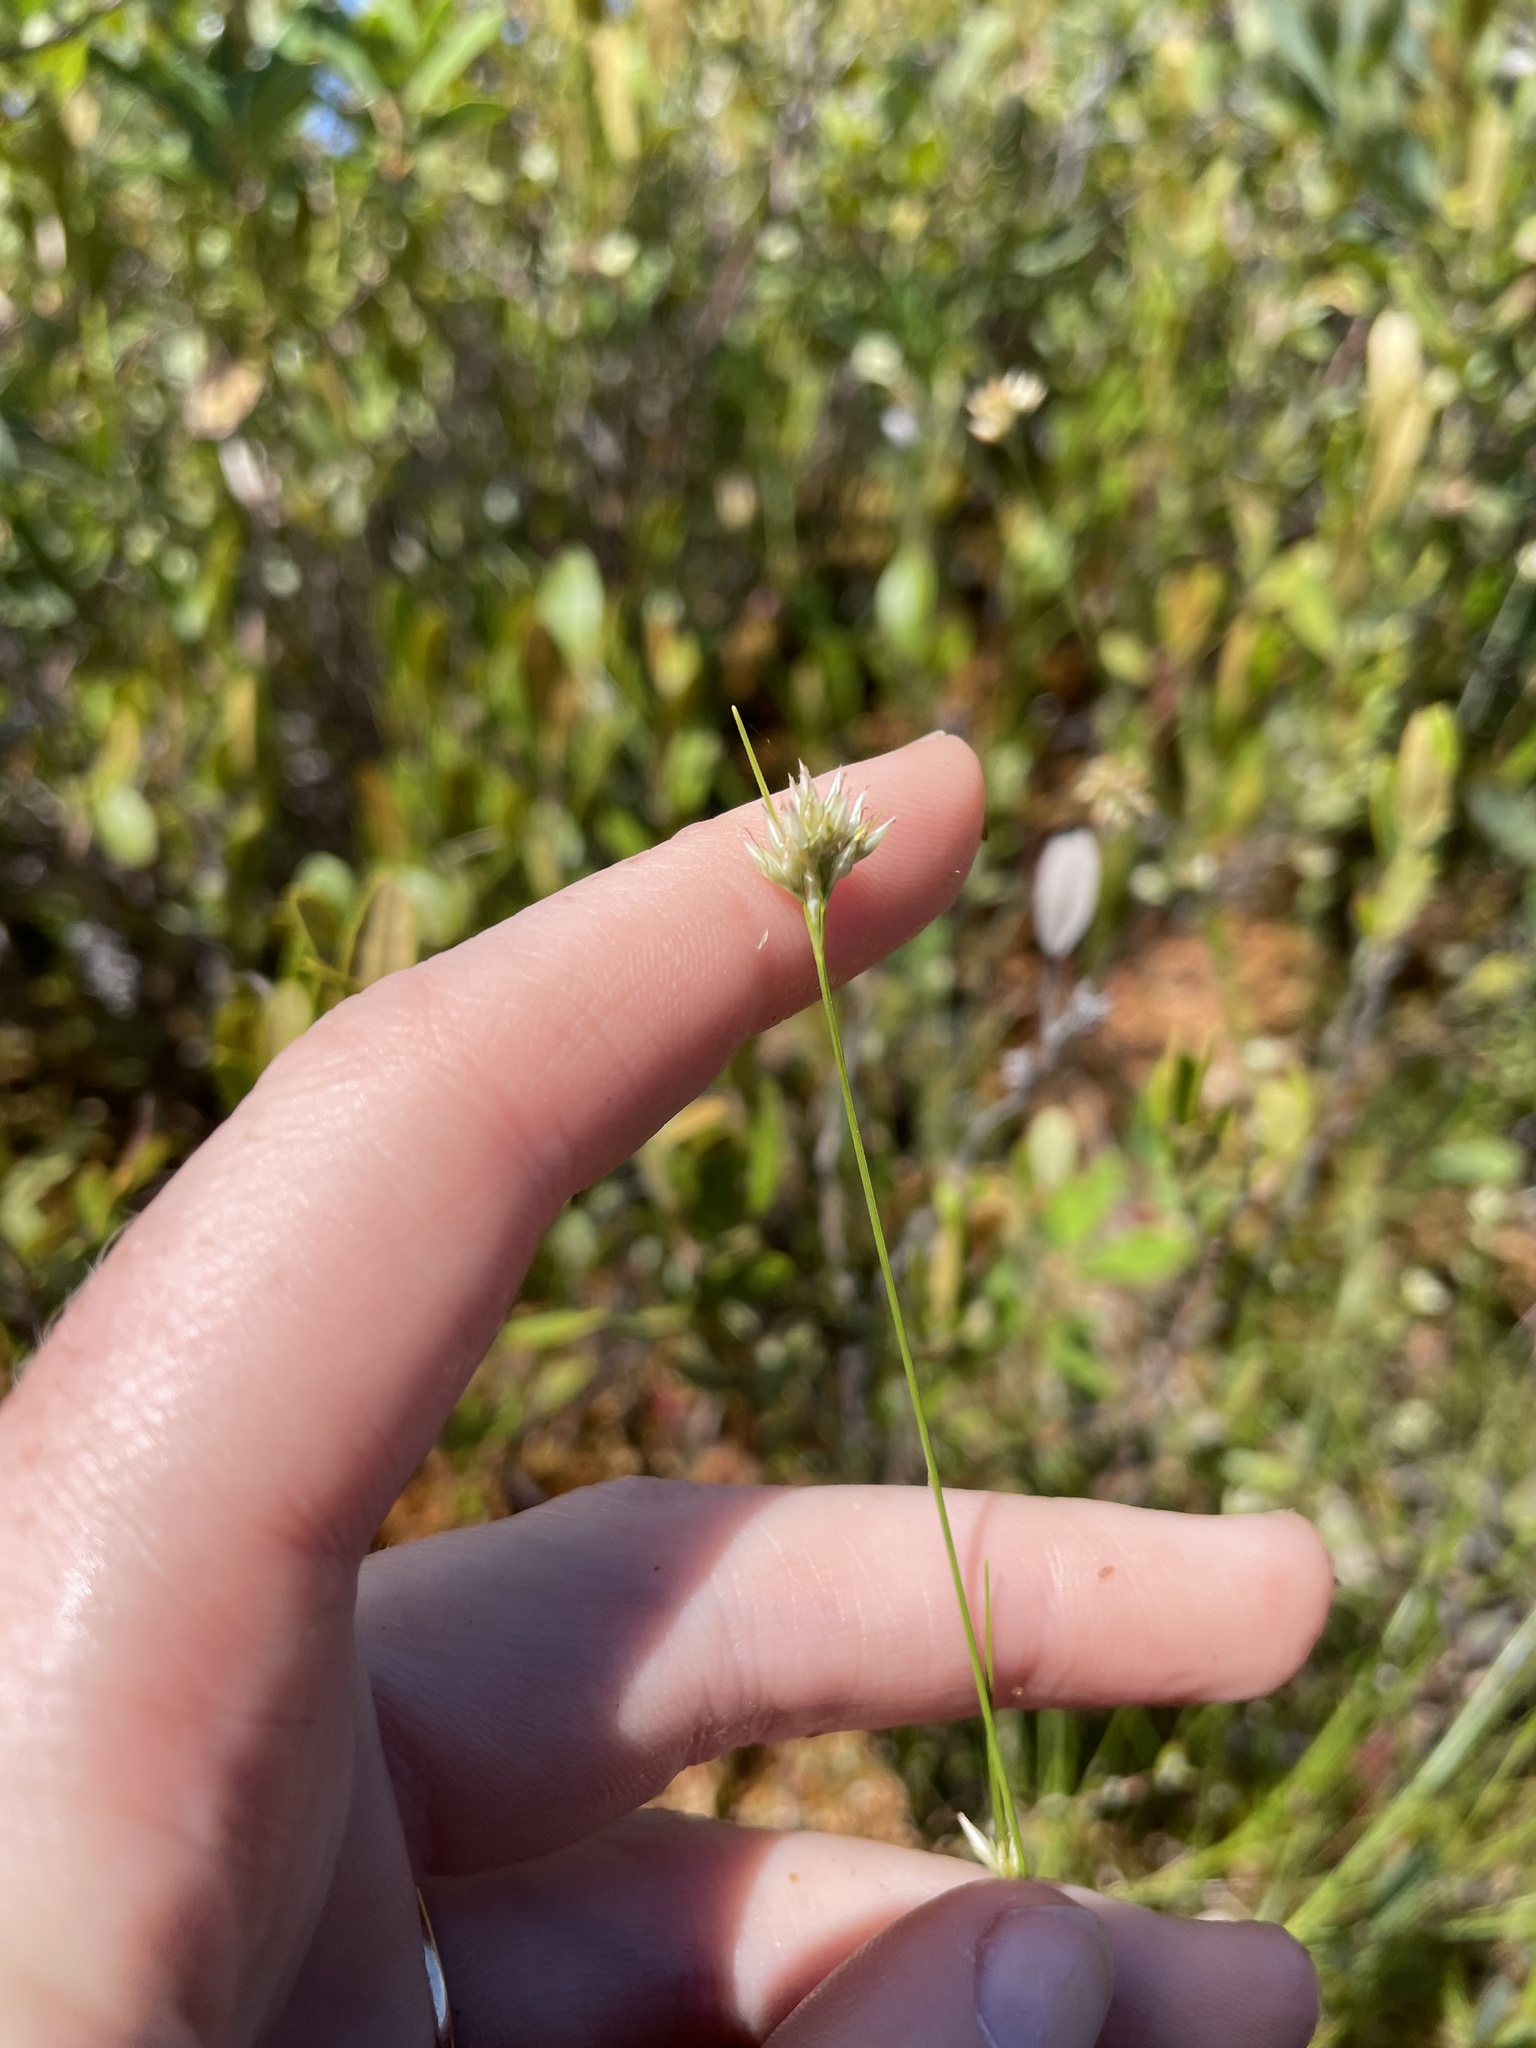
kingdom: Plantae
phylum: Tracheophyta
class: Liliopsida
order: Poales
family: Cyperaceae
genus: Rhynchospora
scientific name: Rhynchospora alba
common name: White beak-sedge
